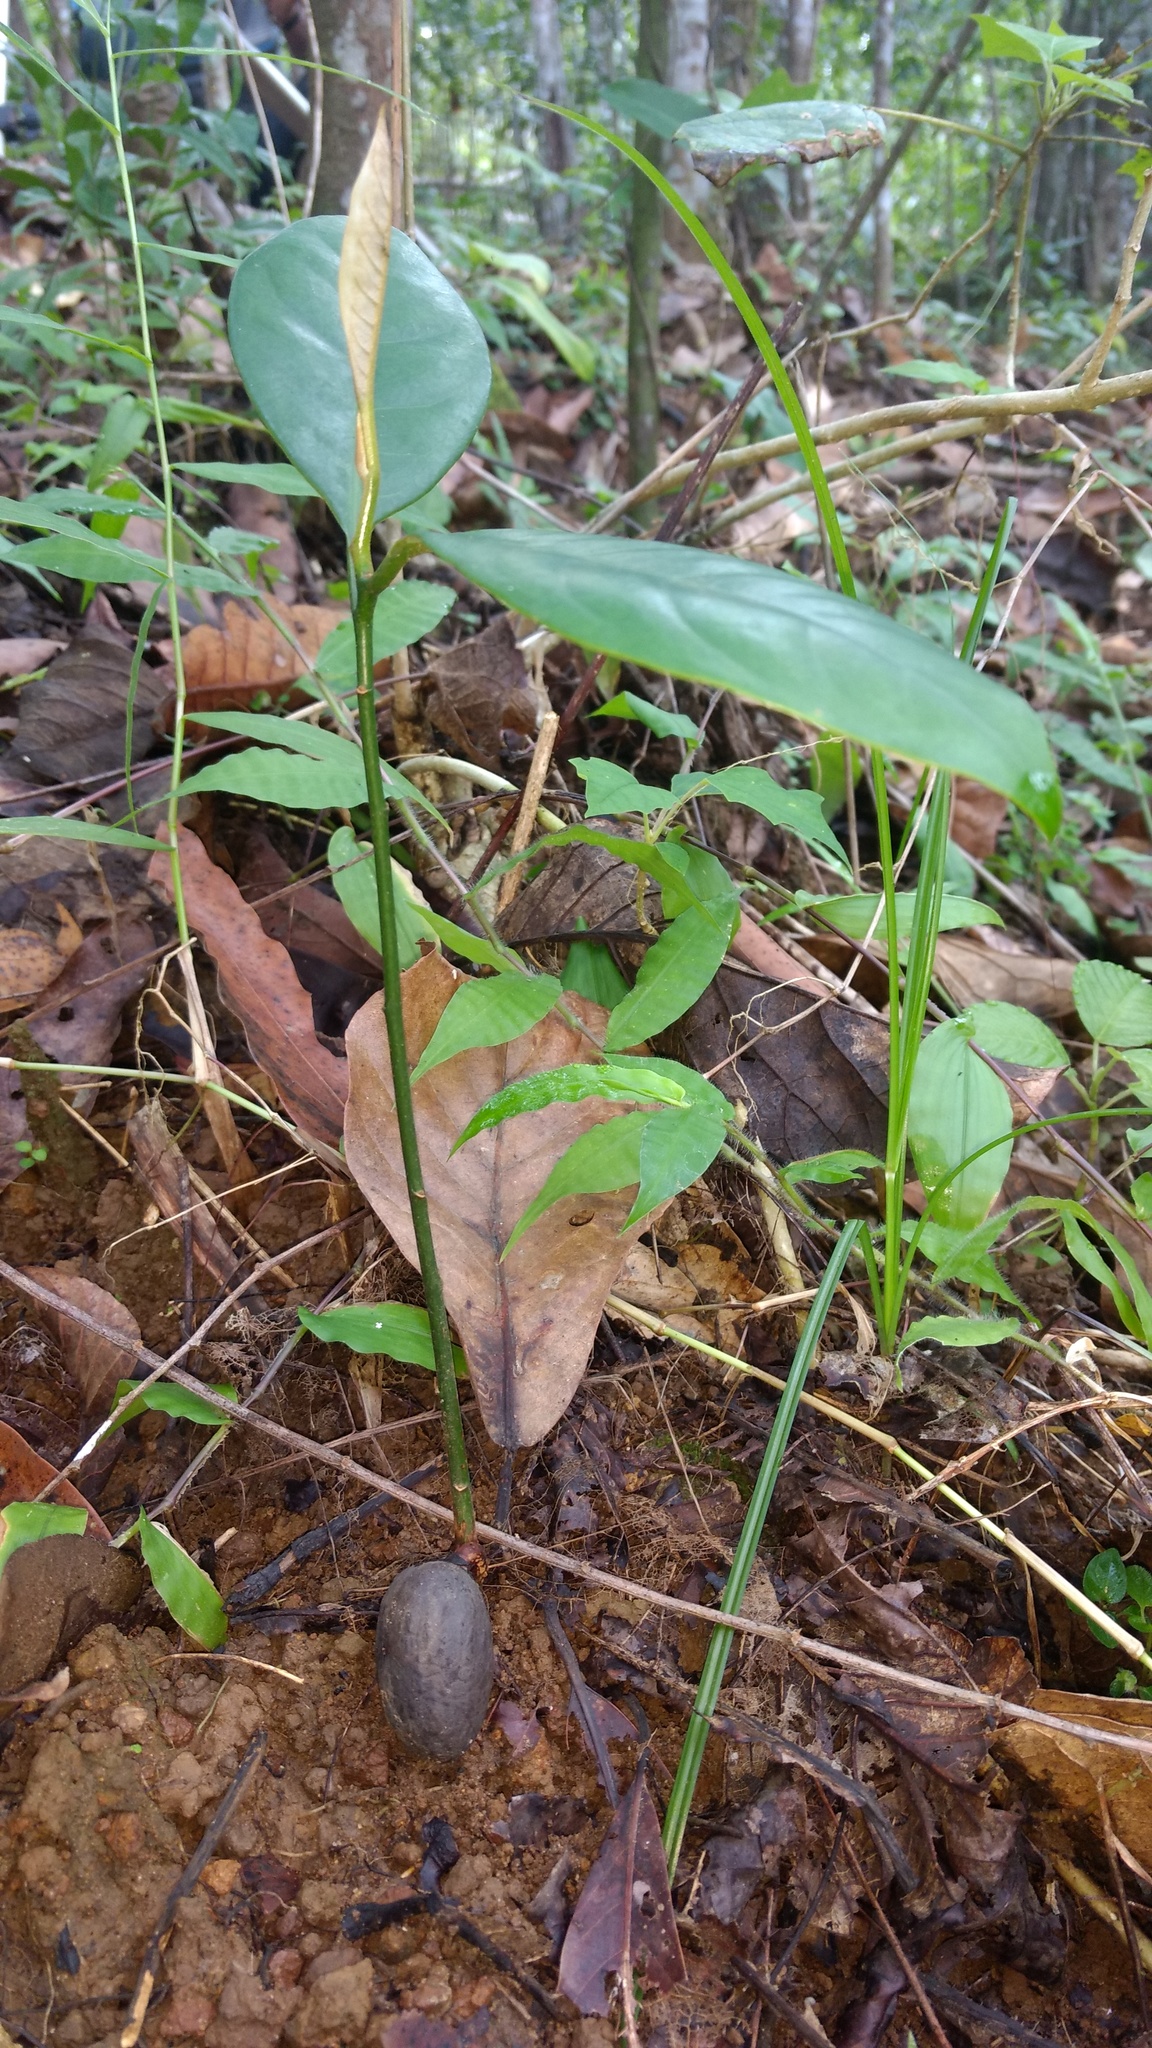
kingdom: Plantae
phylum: Tracheophyta
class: Magnoliopsida
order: Magnoliales
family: Myristicaceae
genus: Myristica
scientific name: Myristica beddomei
